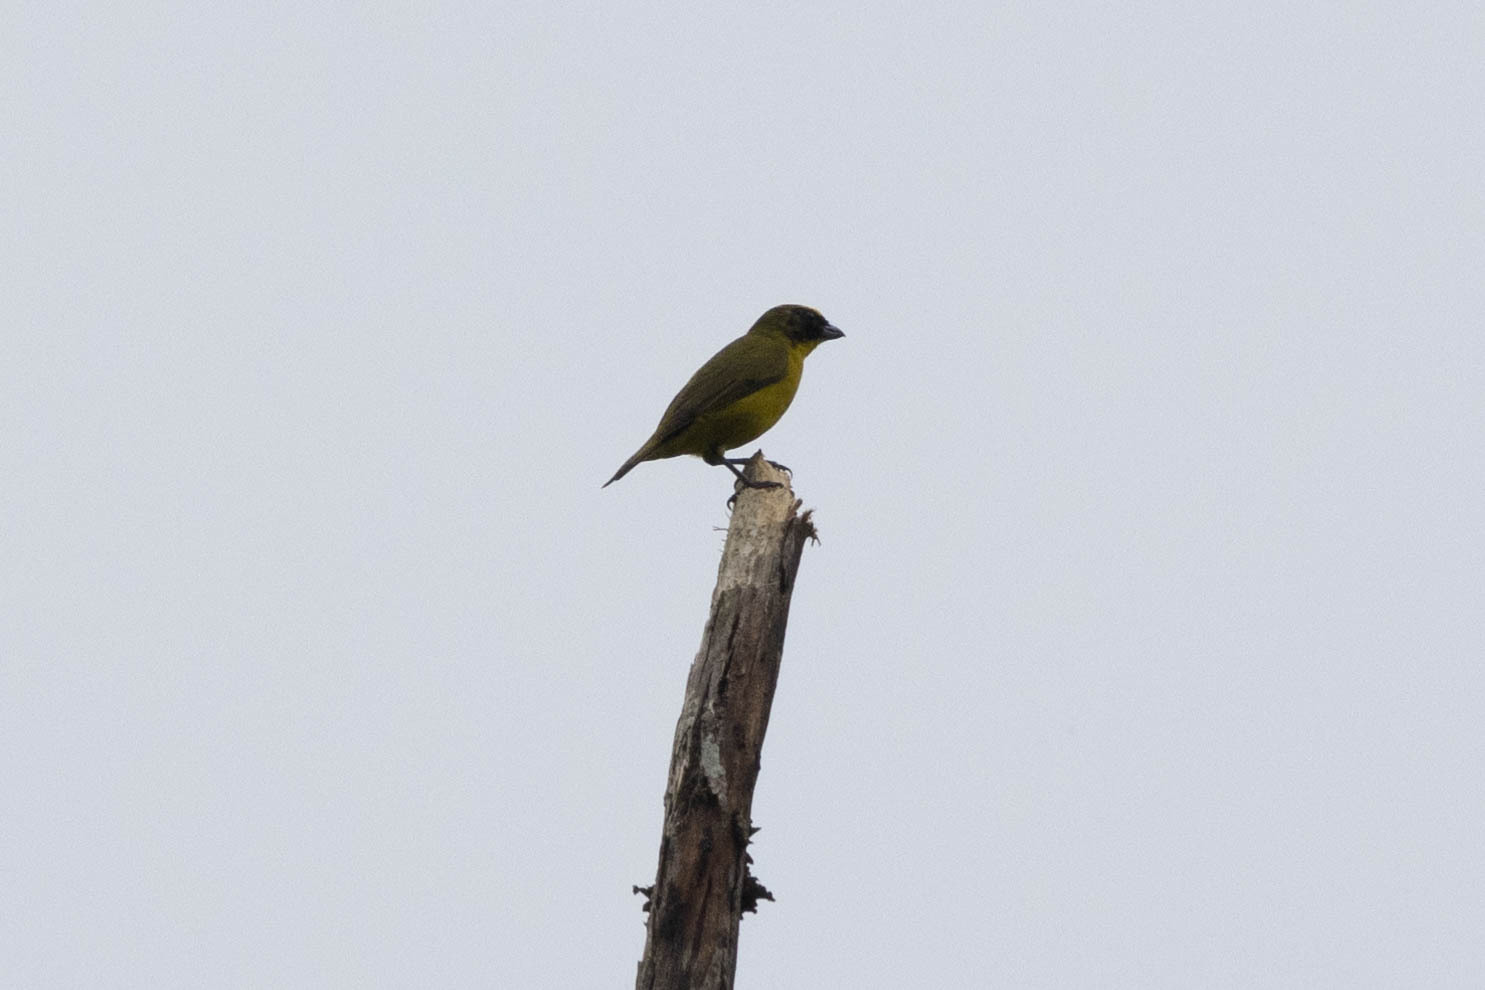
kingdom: Animalia
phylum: Chordata
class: Aves
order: Passeriformes
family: Fringillidae
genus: Euphonia
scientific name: Euphonia laniirostris
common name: Thick-billed euphonia
